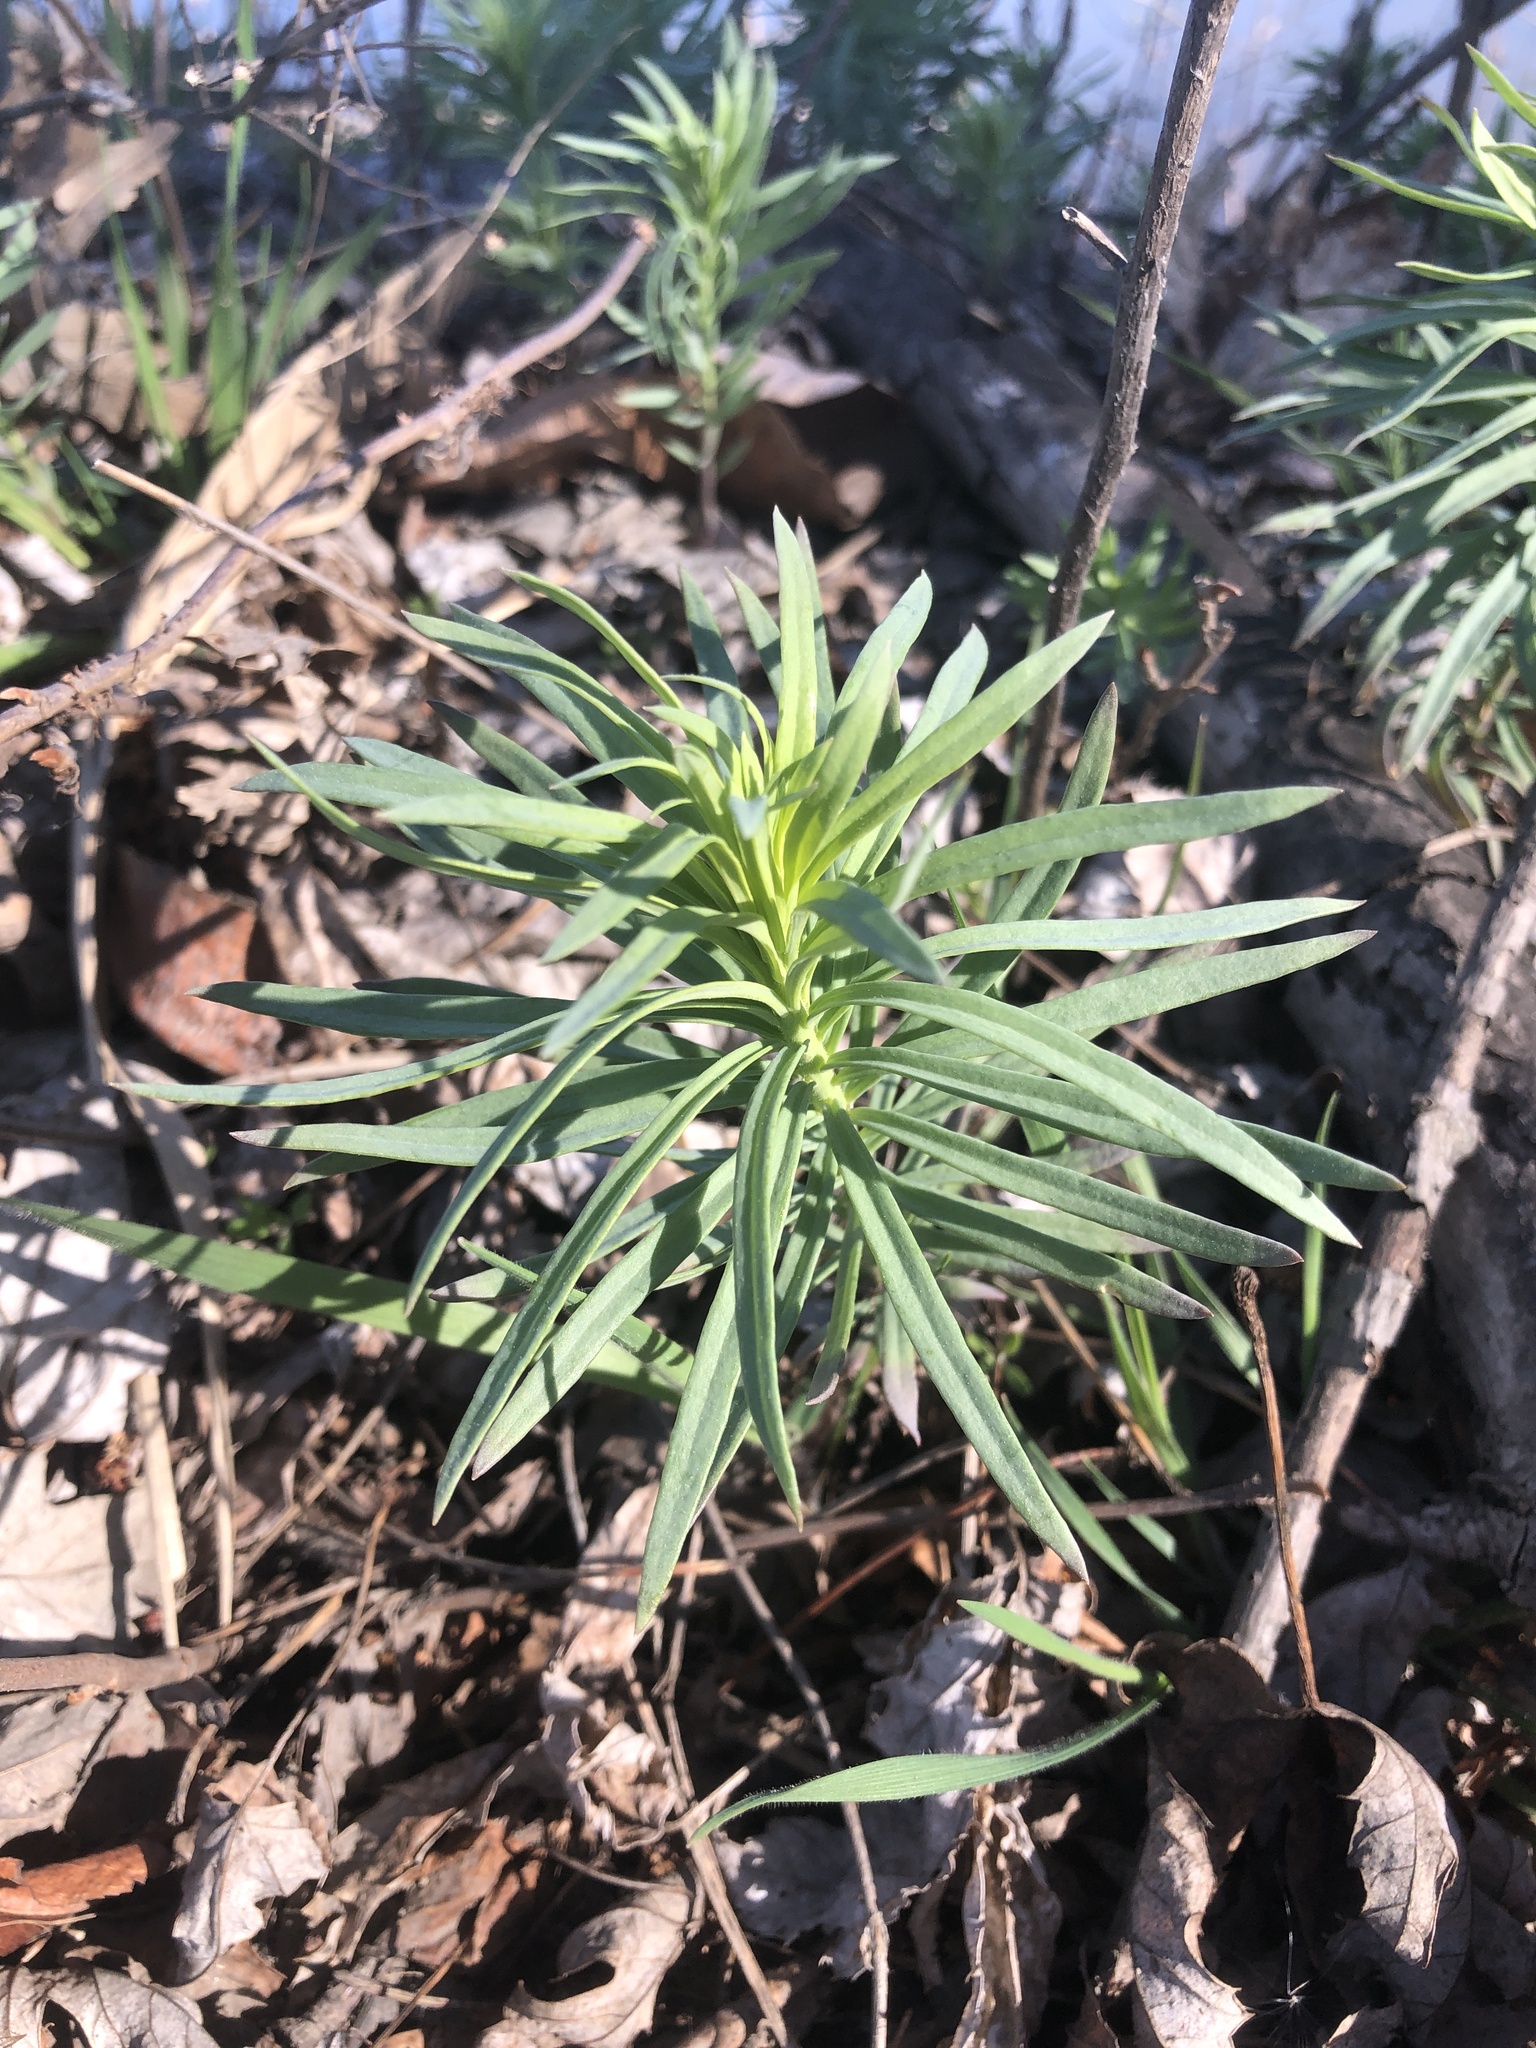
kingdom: Plantae
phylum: Tracheophyta
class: Magnoliopsida
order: Lamiales
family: Plantaginaceae
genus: Linaria
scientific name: Linaria vulgaris
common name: Butter and eggs
